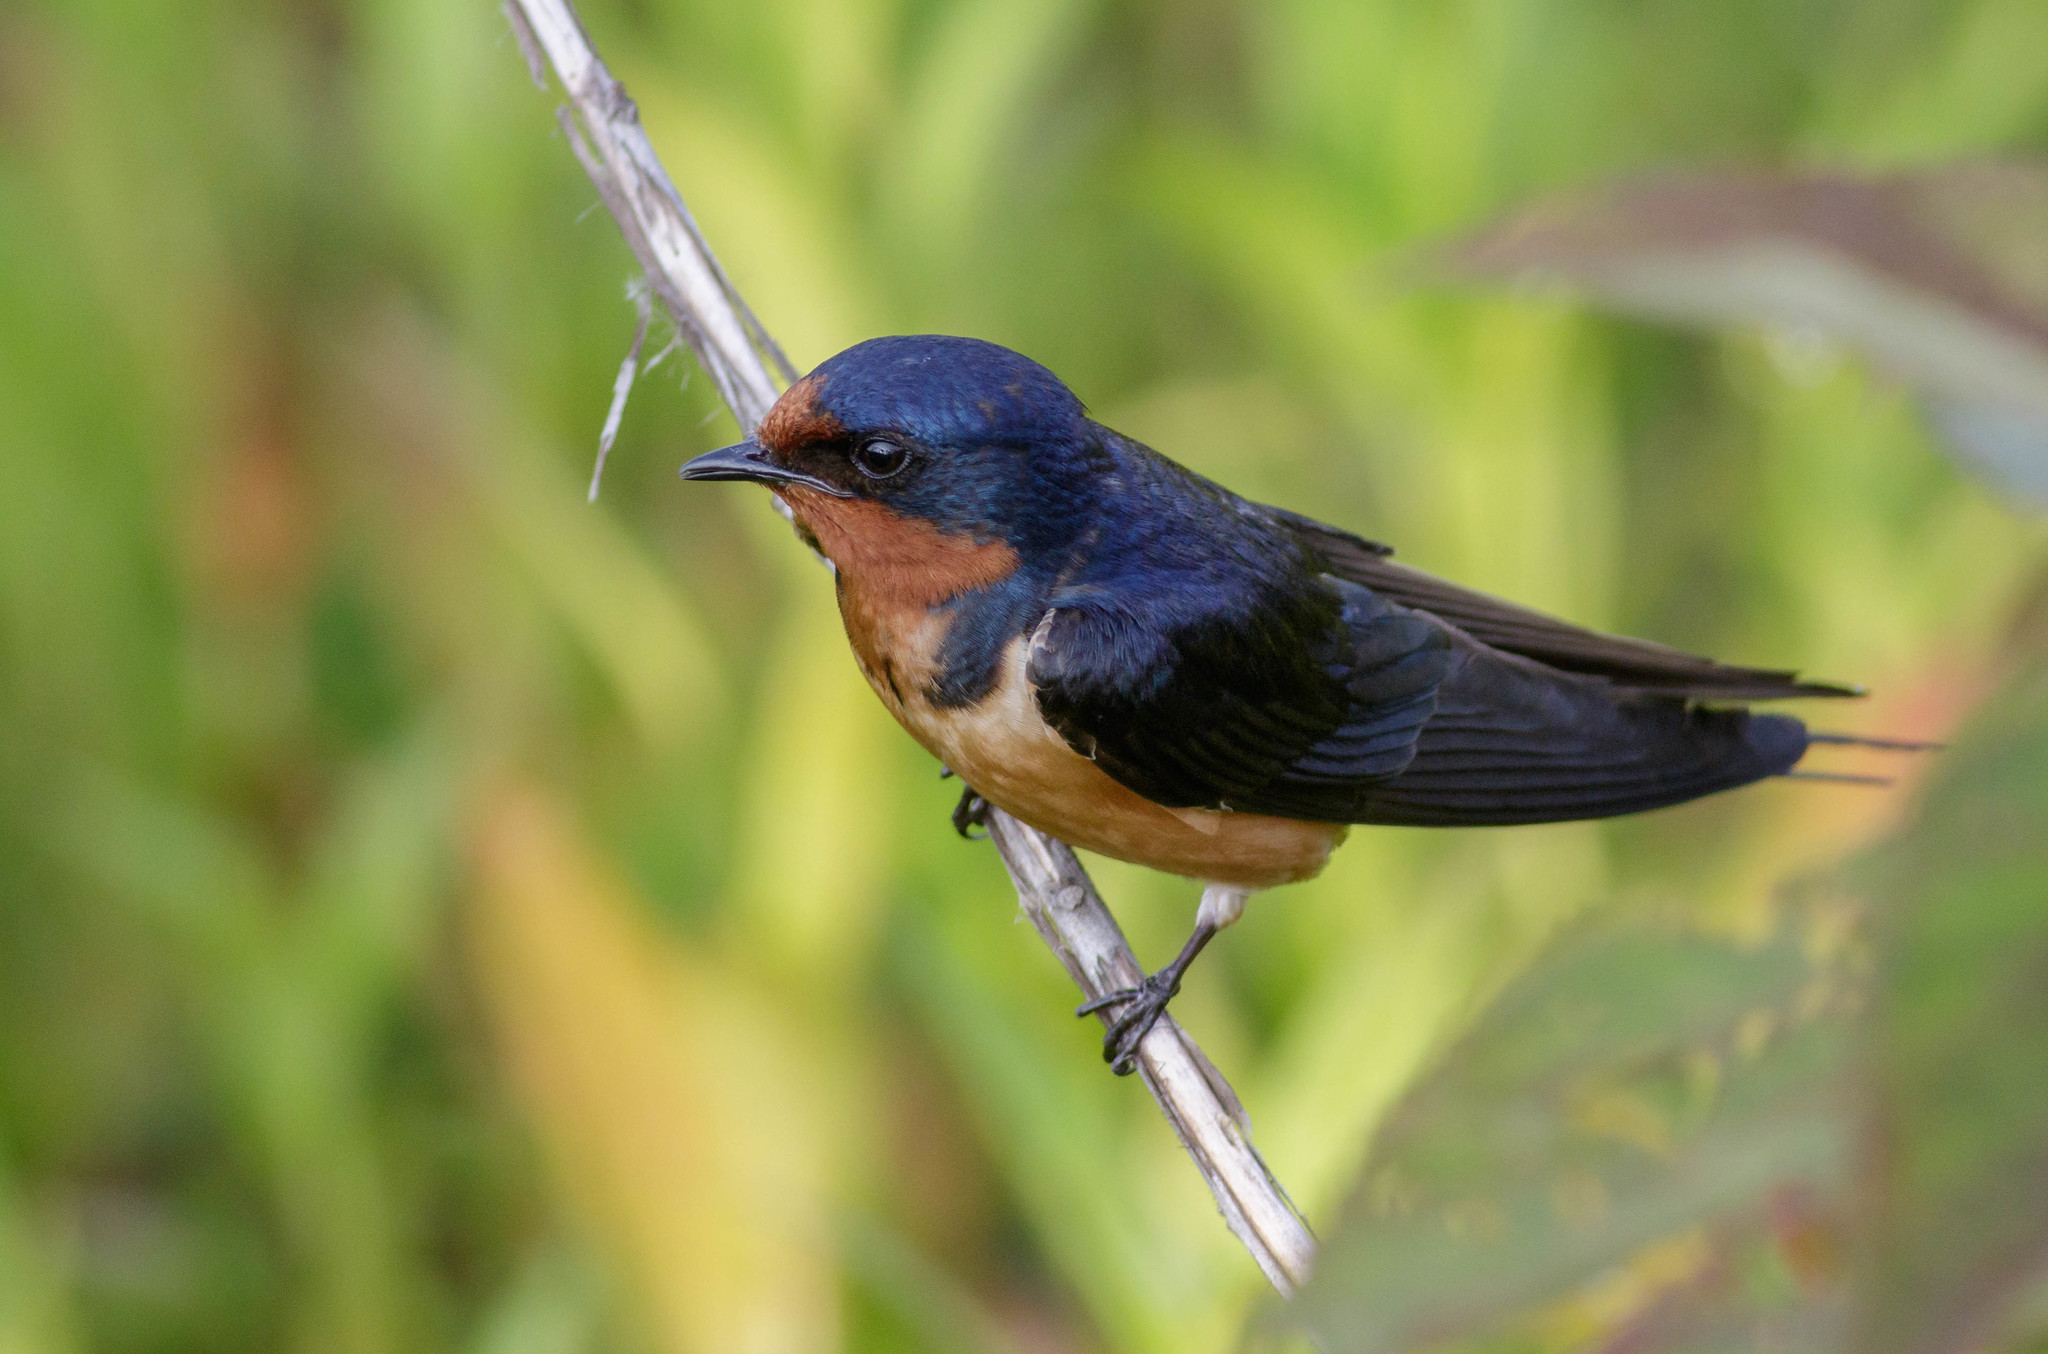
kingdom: Animalia
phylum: Chordata
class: Aves
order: Passeriformes
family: Hirundinidae
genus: Hirundo
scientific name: Hirundo rustica
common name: Barn swallow
